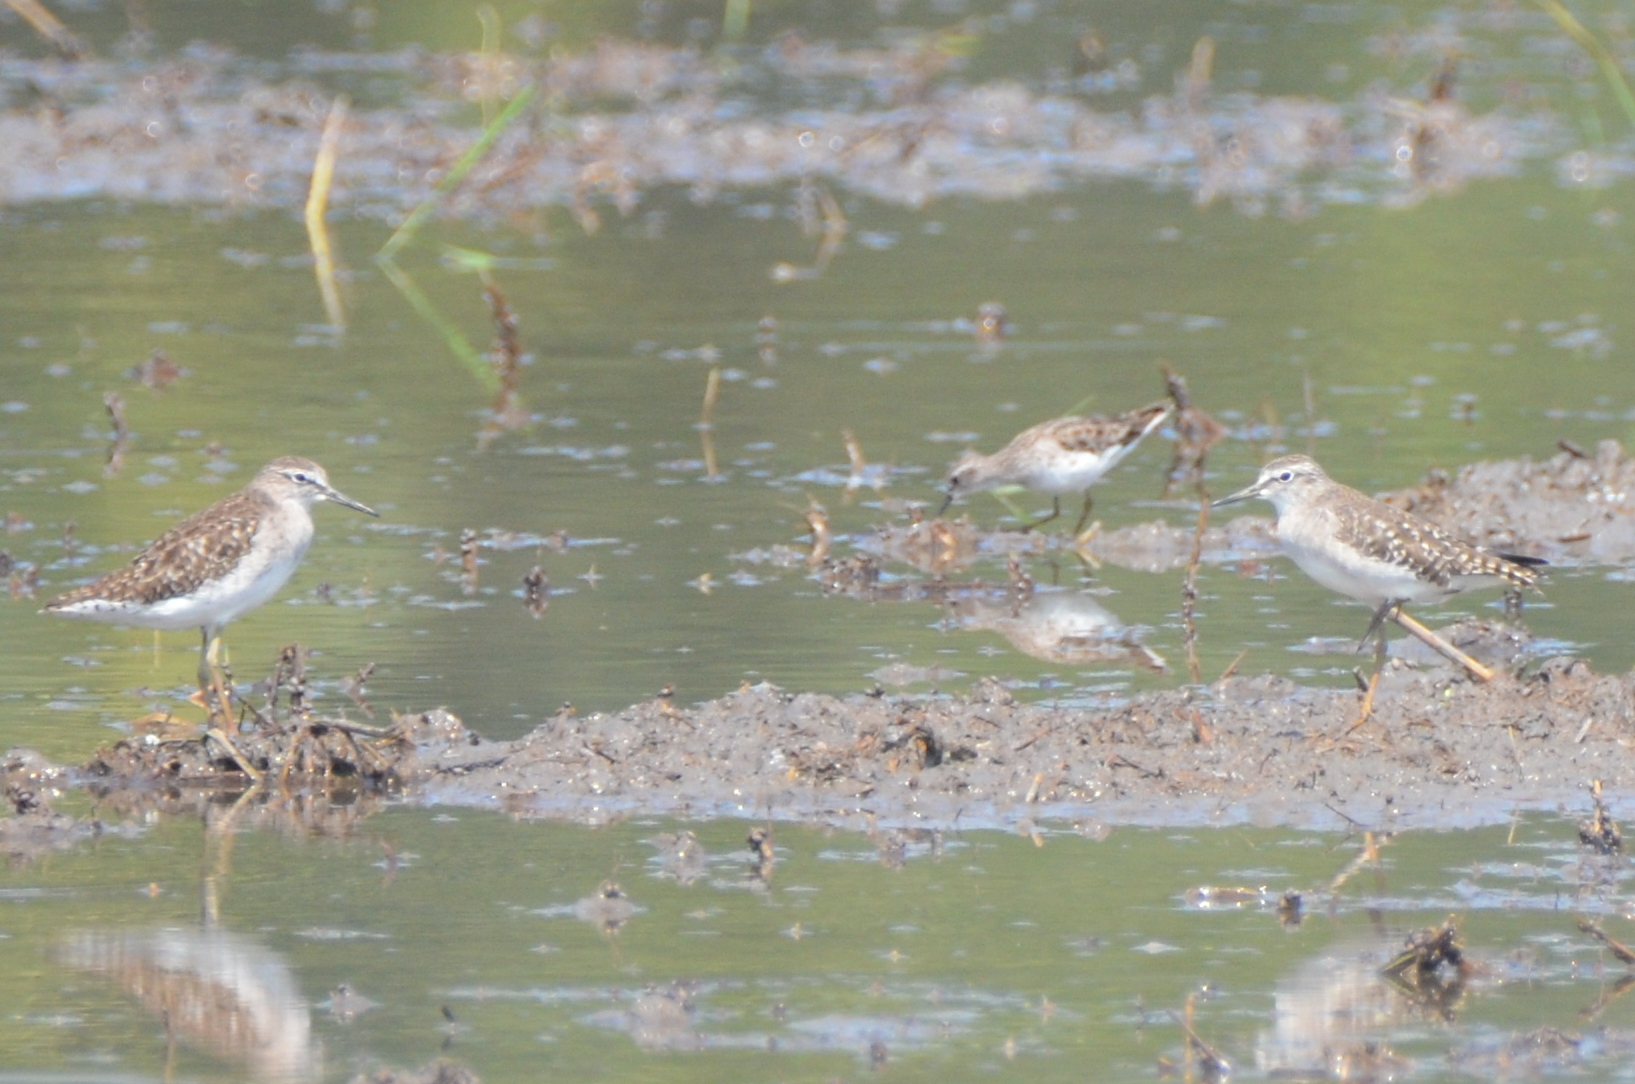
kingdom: Animalia
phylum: Chordata
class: Aves
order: Charadriiformes
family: Scolopacidae
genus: Calidris
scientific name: Calidris subminuta
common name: Long-toed stint
